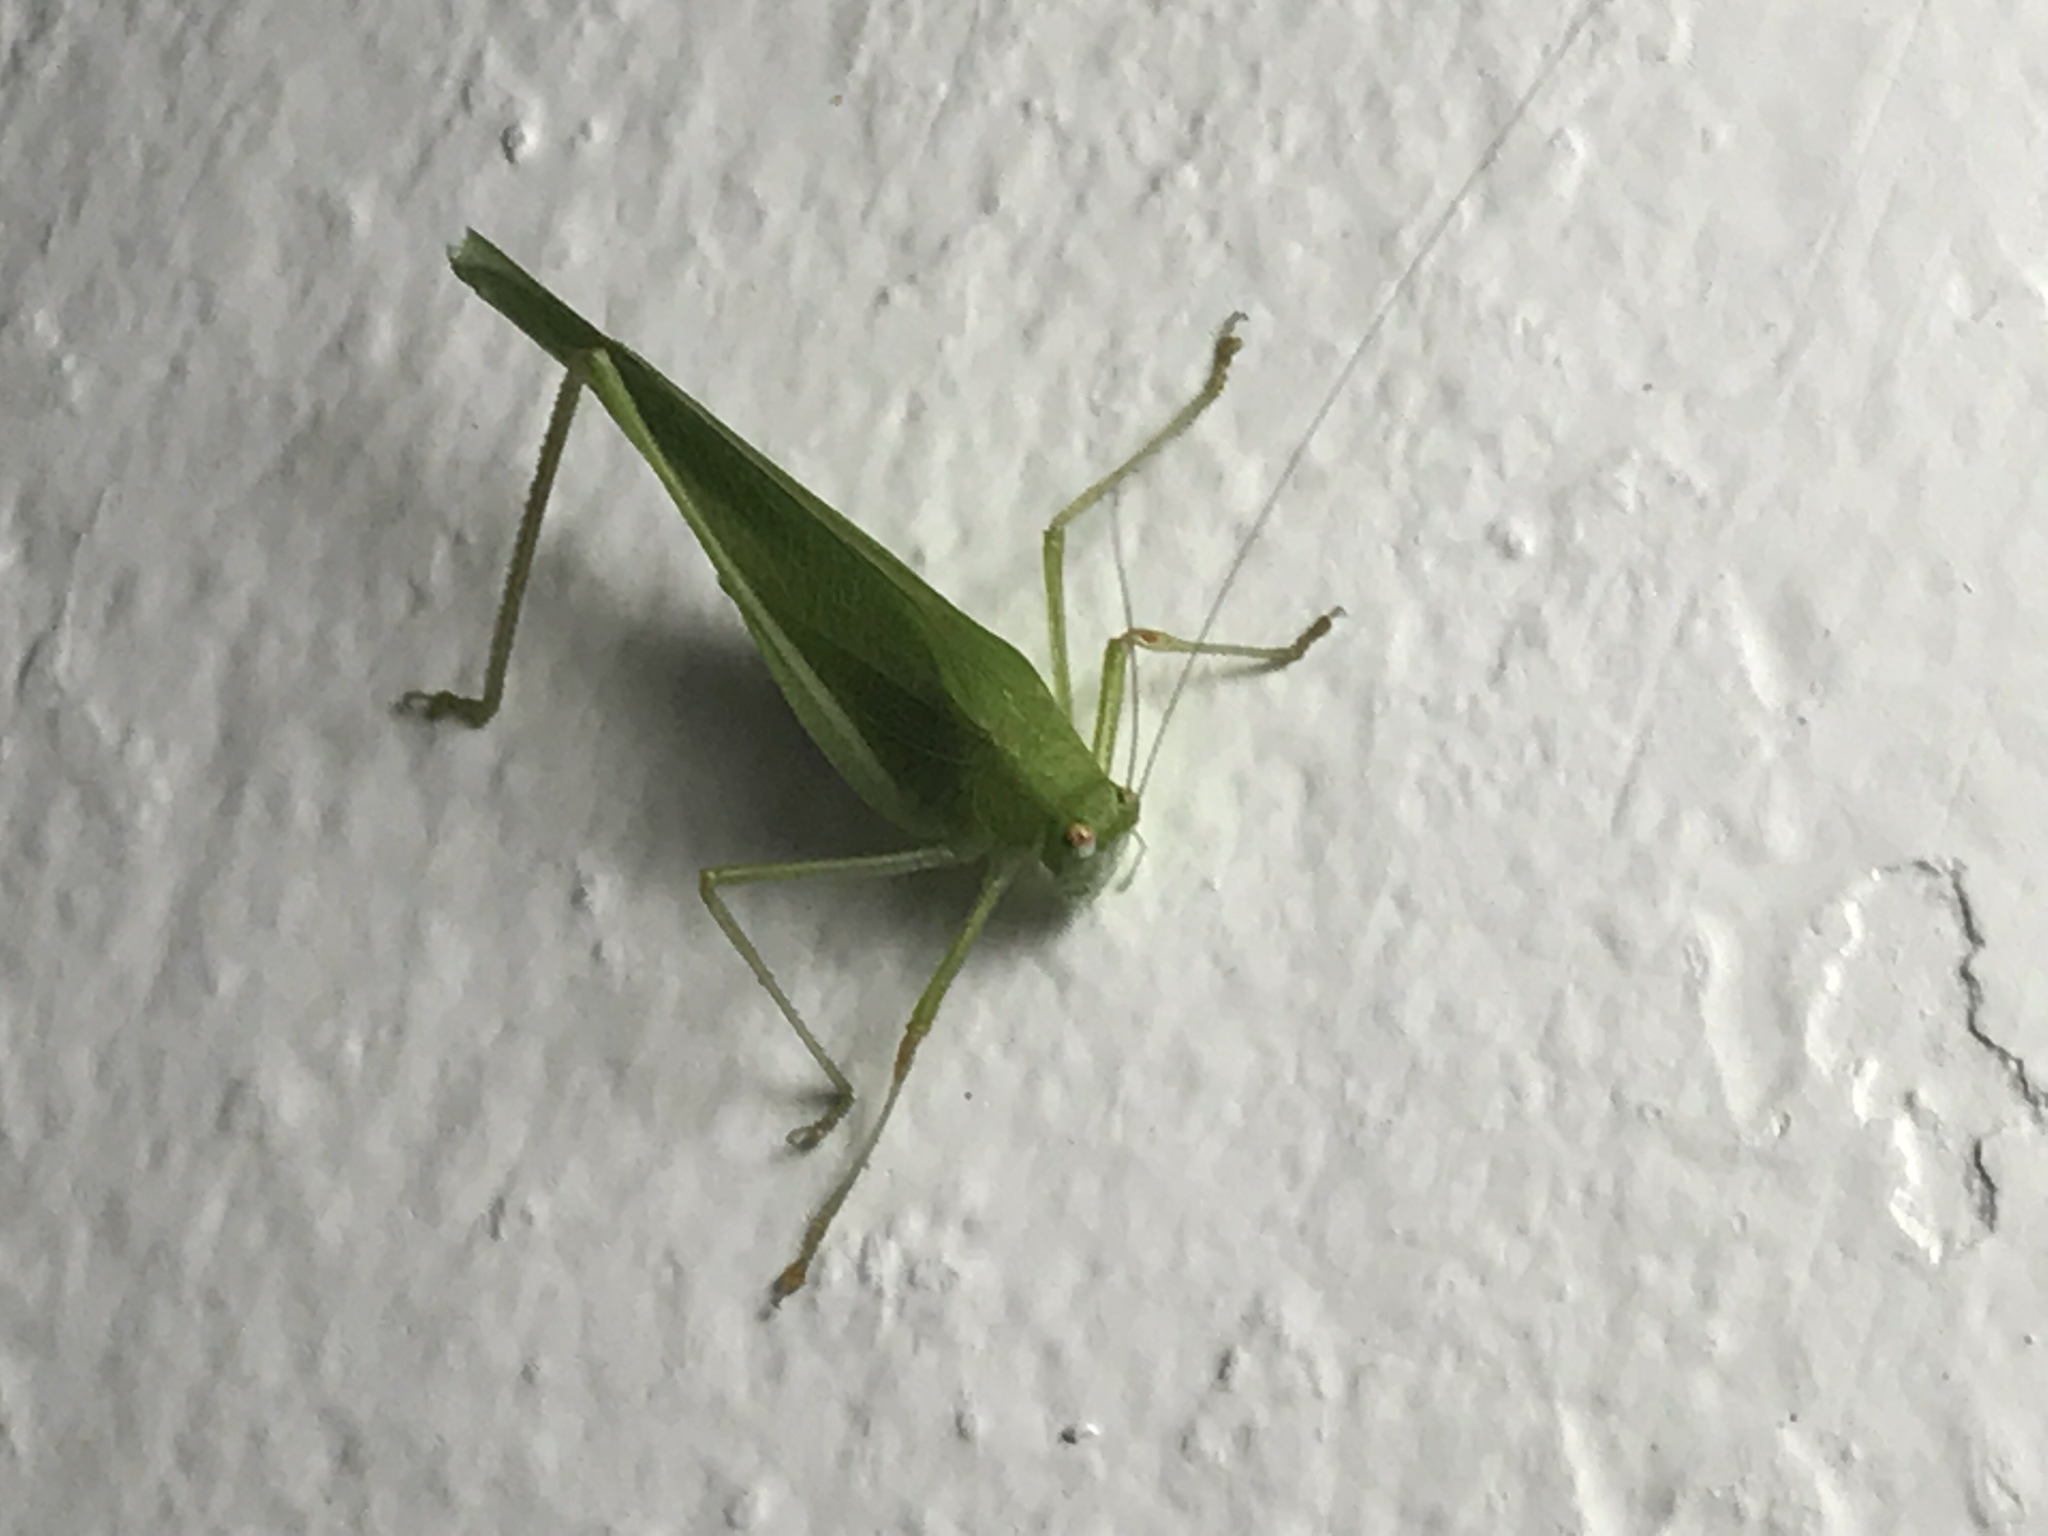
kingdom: Animalia
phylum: Arthropoda
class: Insecta
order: Orthoptera
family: Tettigoniidae
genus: Phaneroptera
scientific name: Phaneroptera nana
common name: Southern sickle bush-cricket
